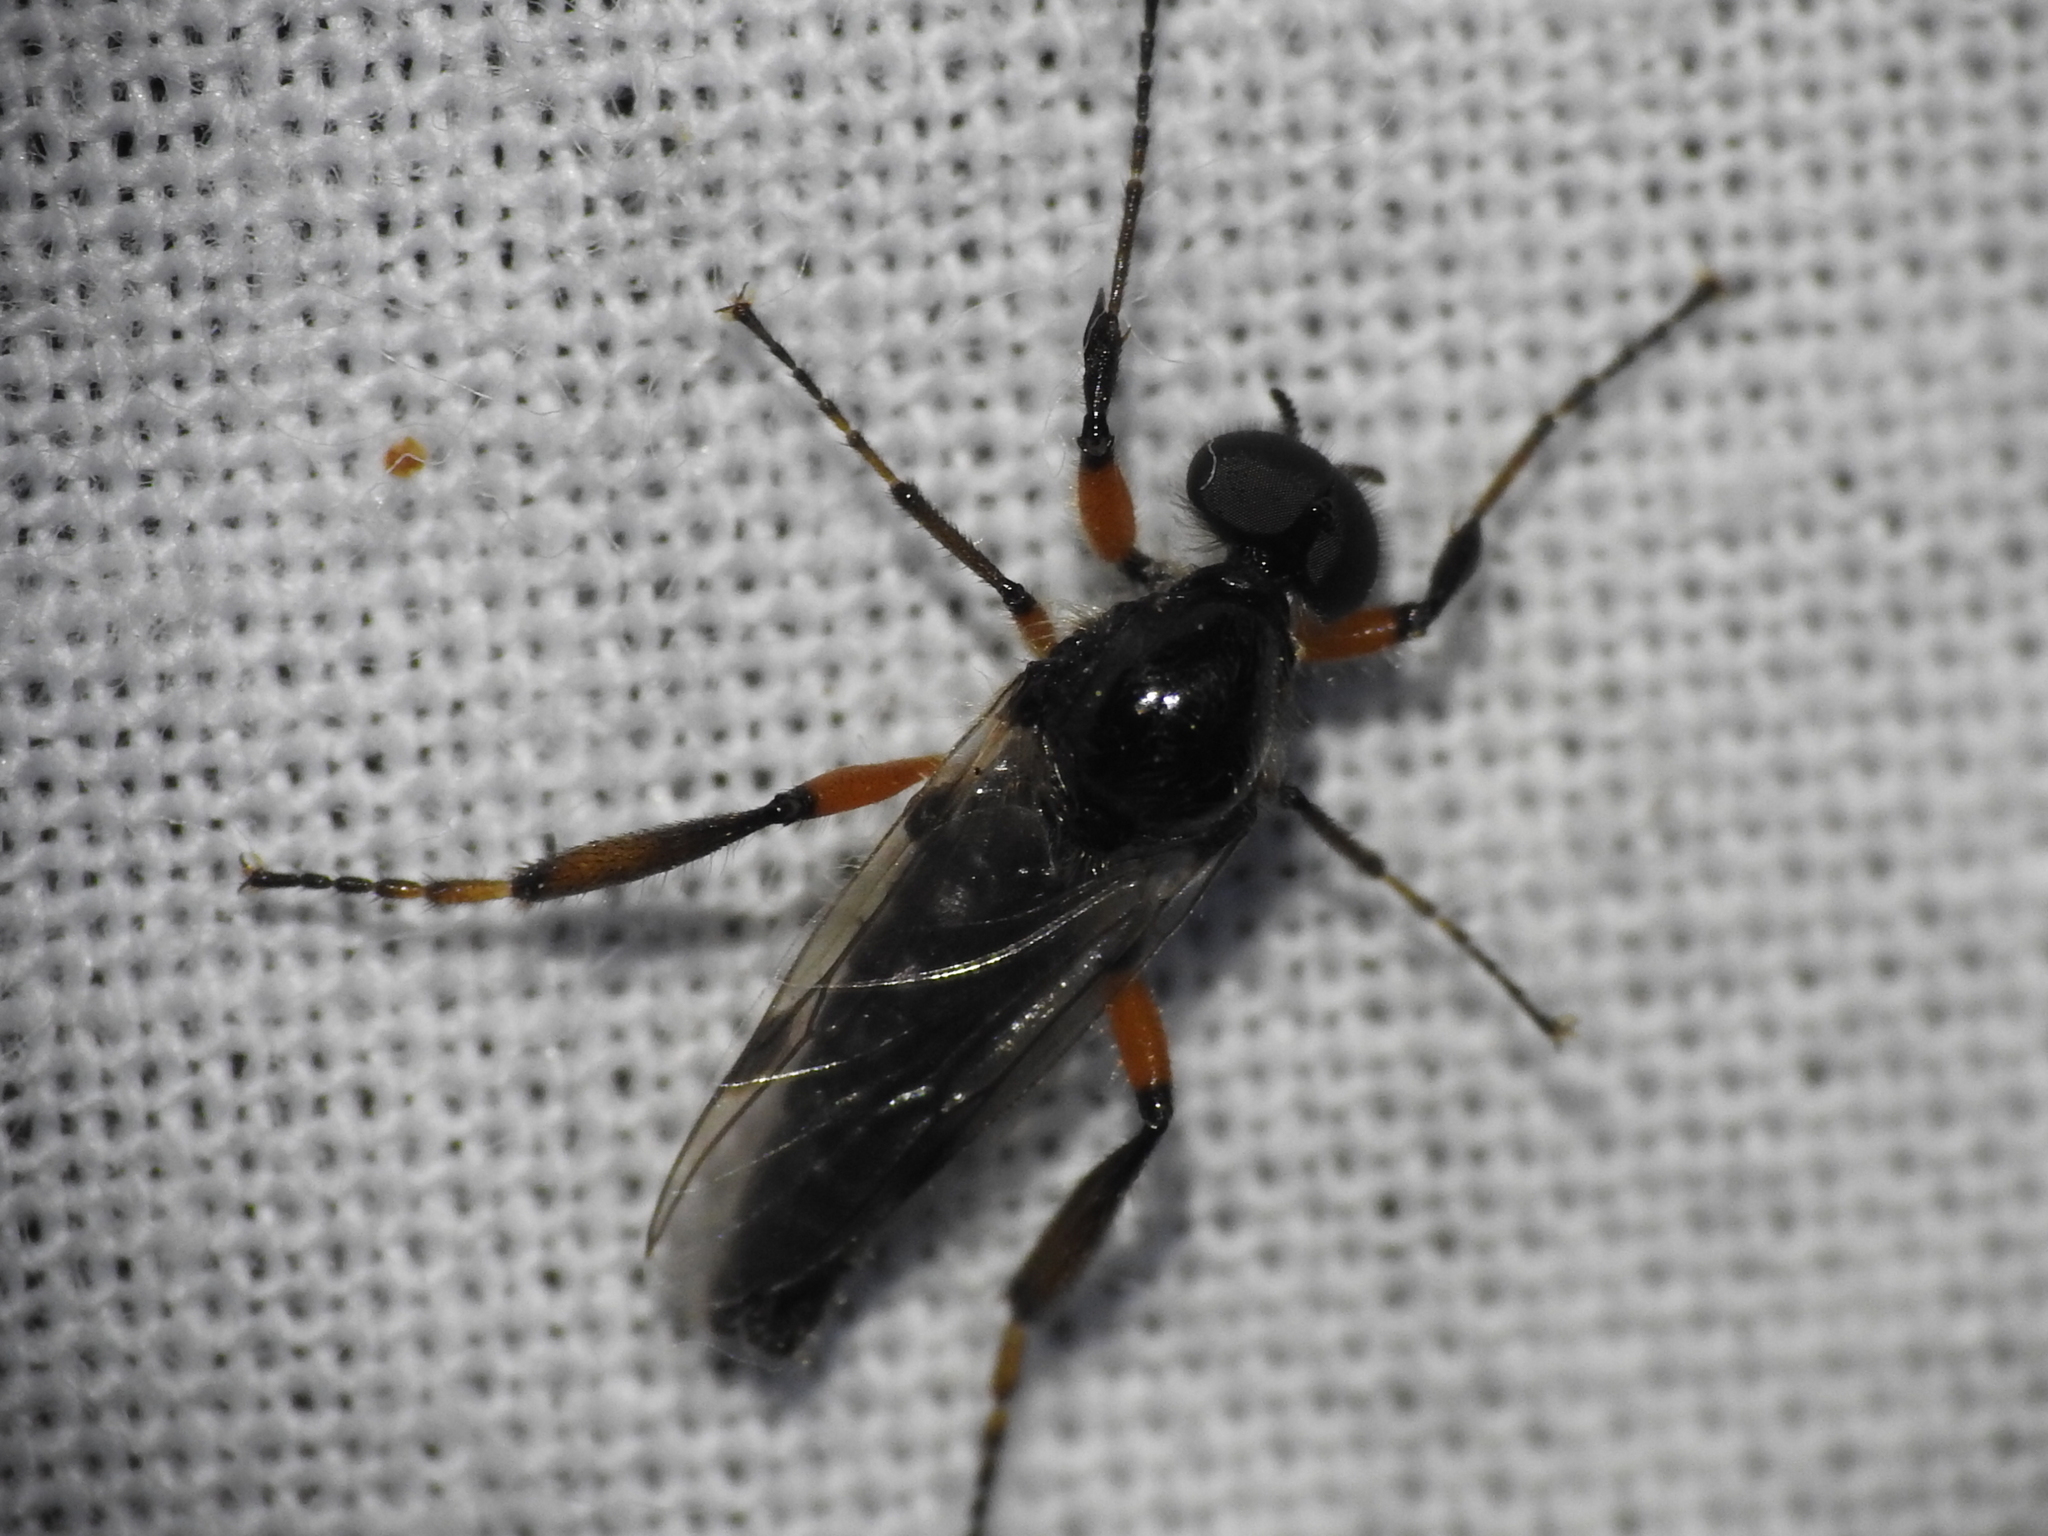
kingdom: Animalia
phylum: Arthropoda
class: Insecta
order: Diptera
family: Bibionidae
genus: Bibio
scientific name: Bibio alienus
